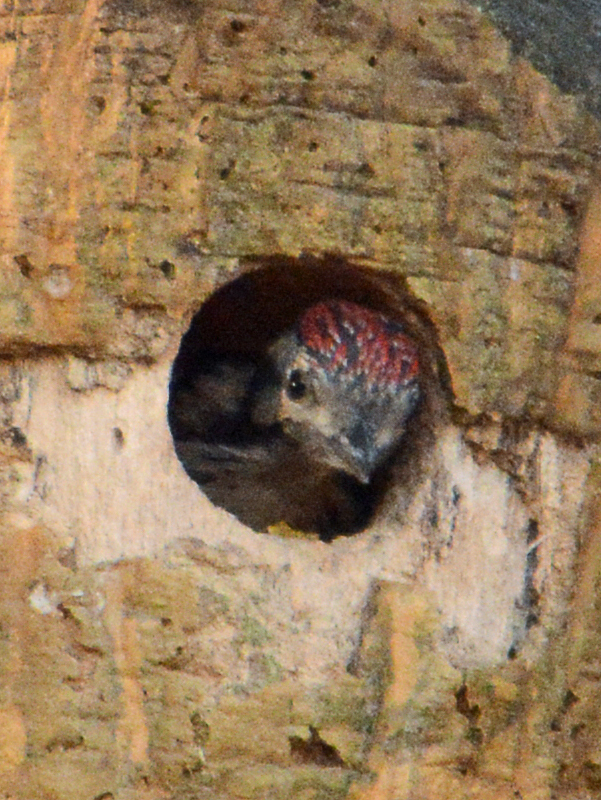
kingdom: Animalia
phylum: Chordata
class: Aves
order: Piciformes
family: Picidae
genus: Dryobates
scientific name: Dryobates scalaris
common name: Ladder-backed woodpecker
